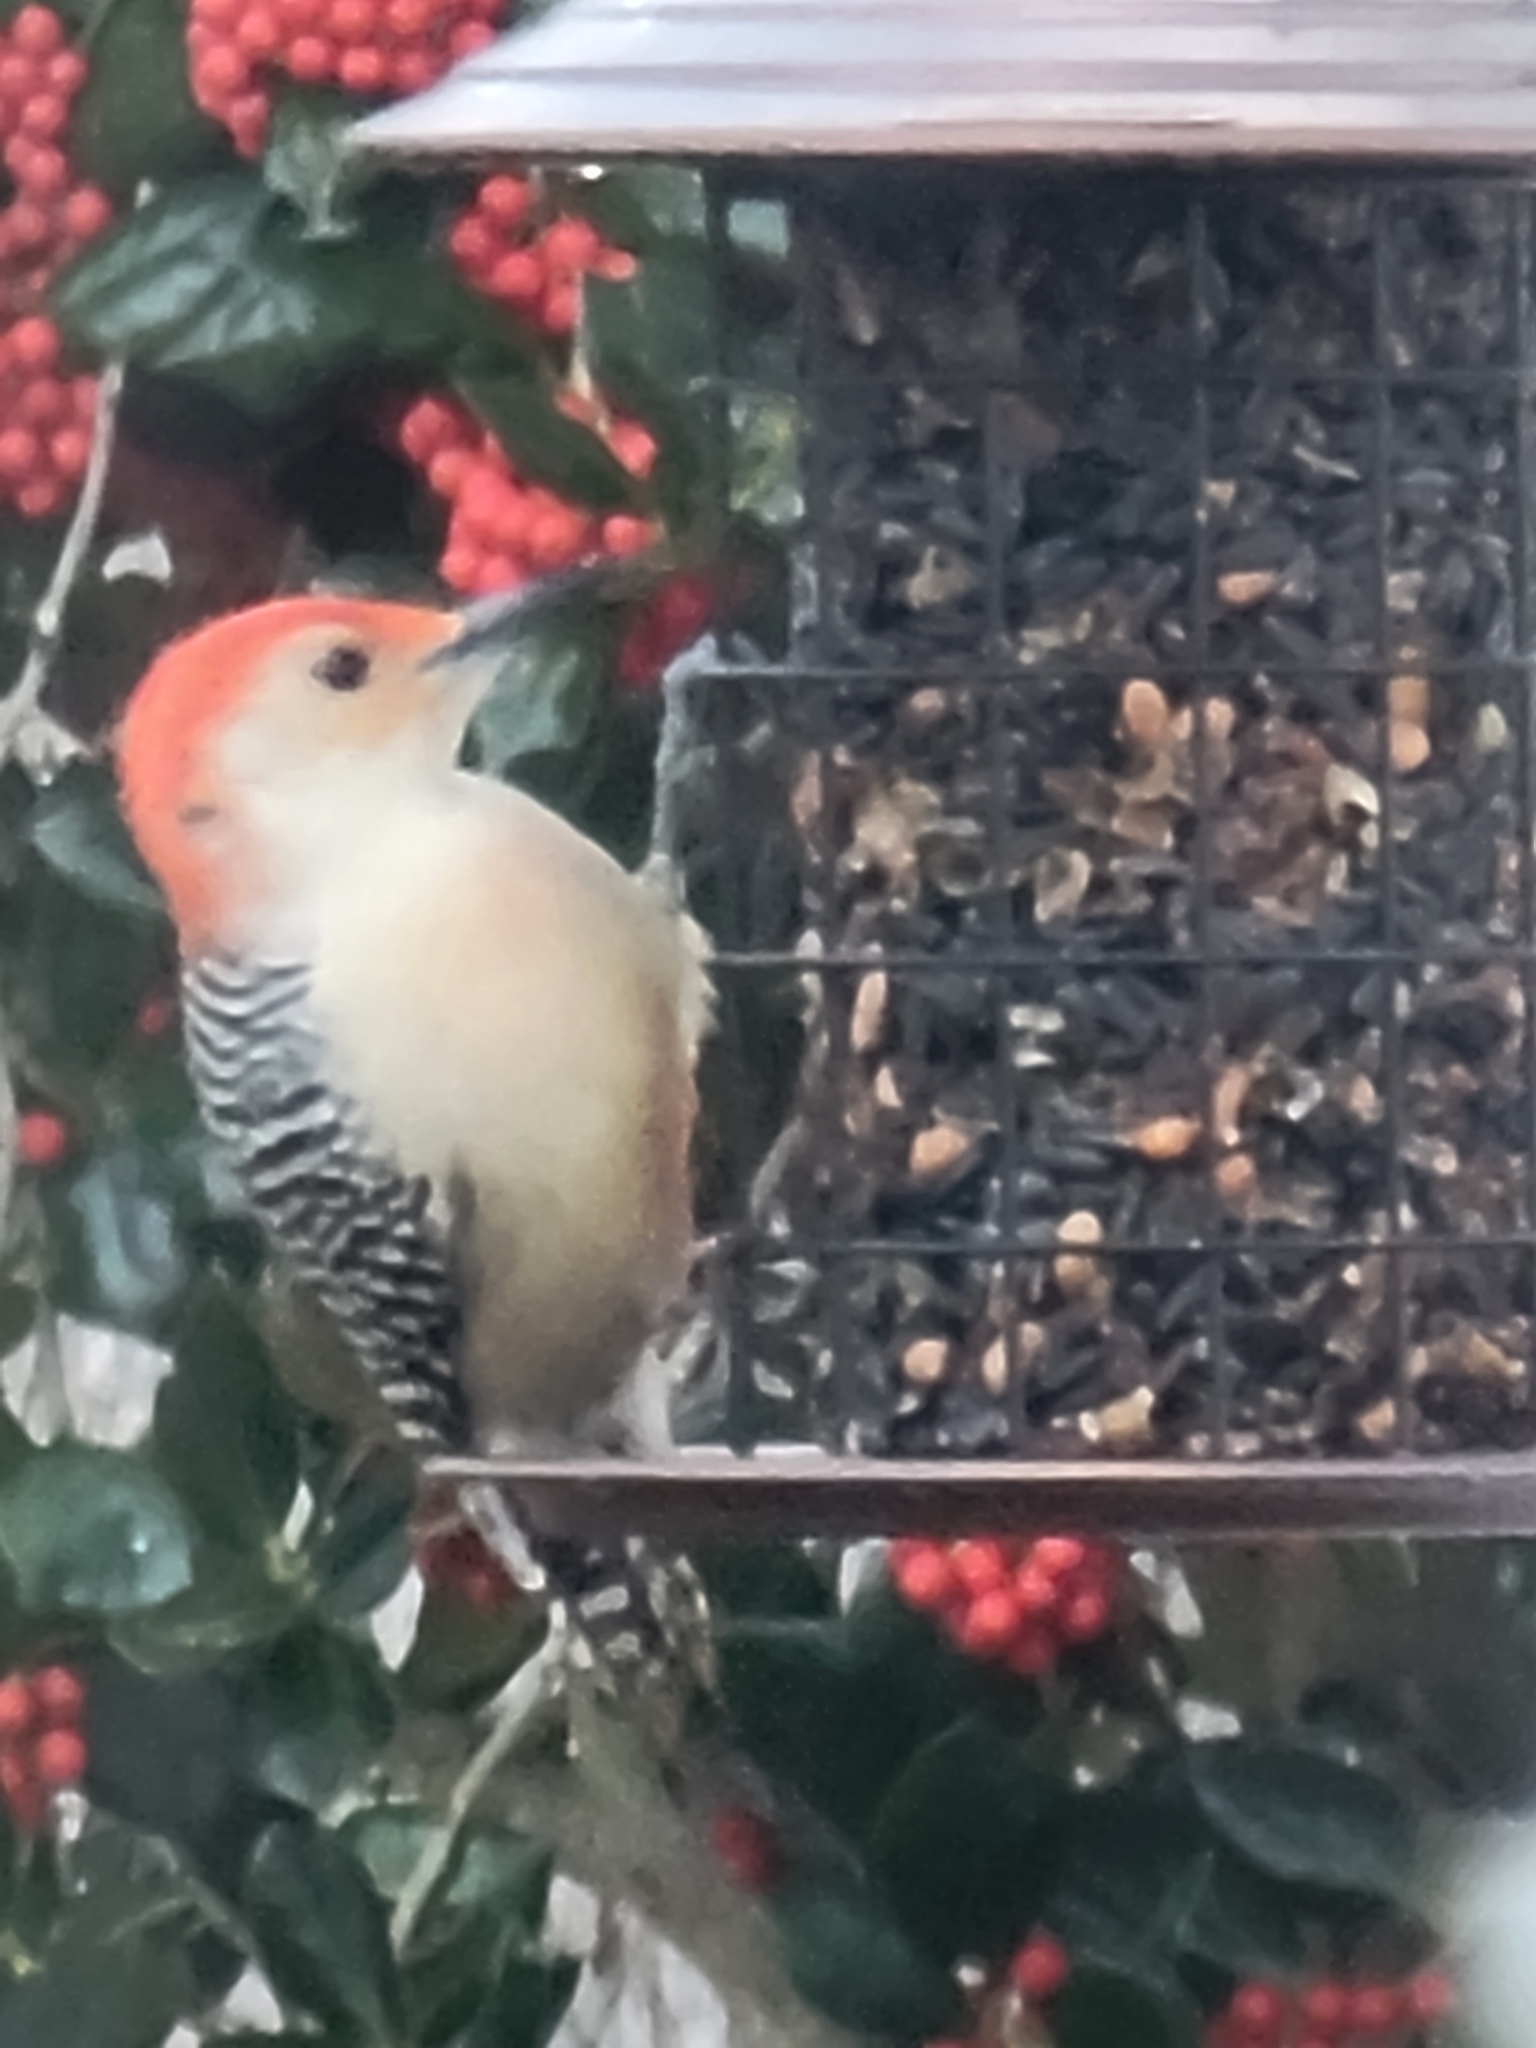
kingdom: Animalia
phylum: Chordata
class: Aves
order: Piciformes
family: Picidae
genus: Melanerpes
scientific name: Melanerpes carolinus
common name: Red-bellied woodpecker
